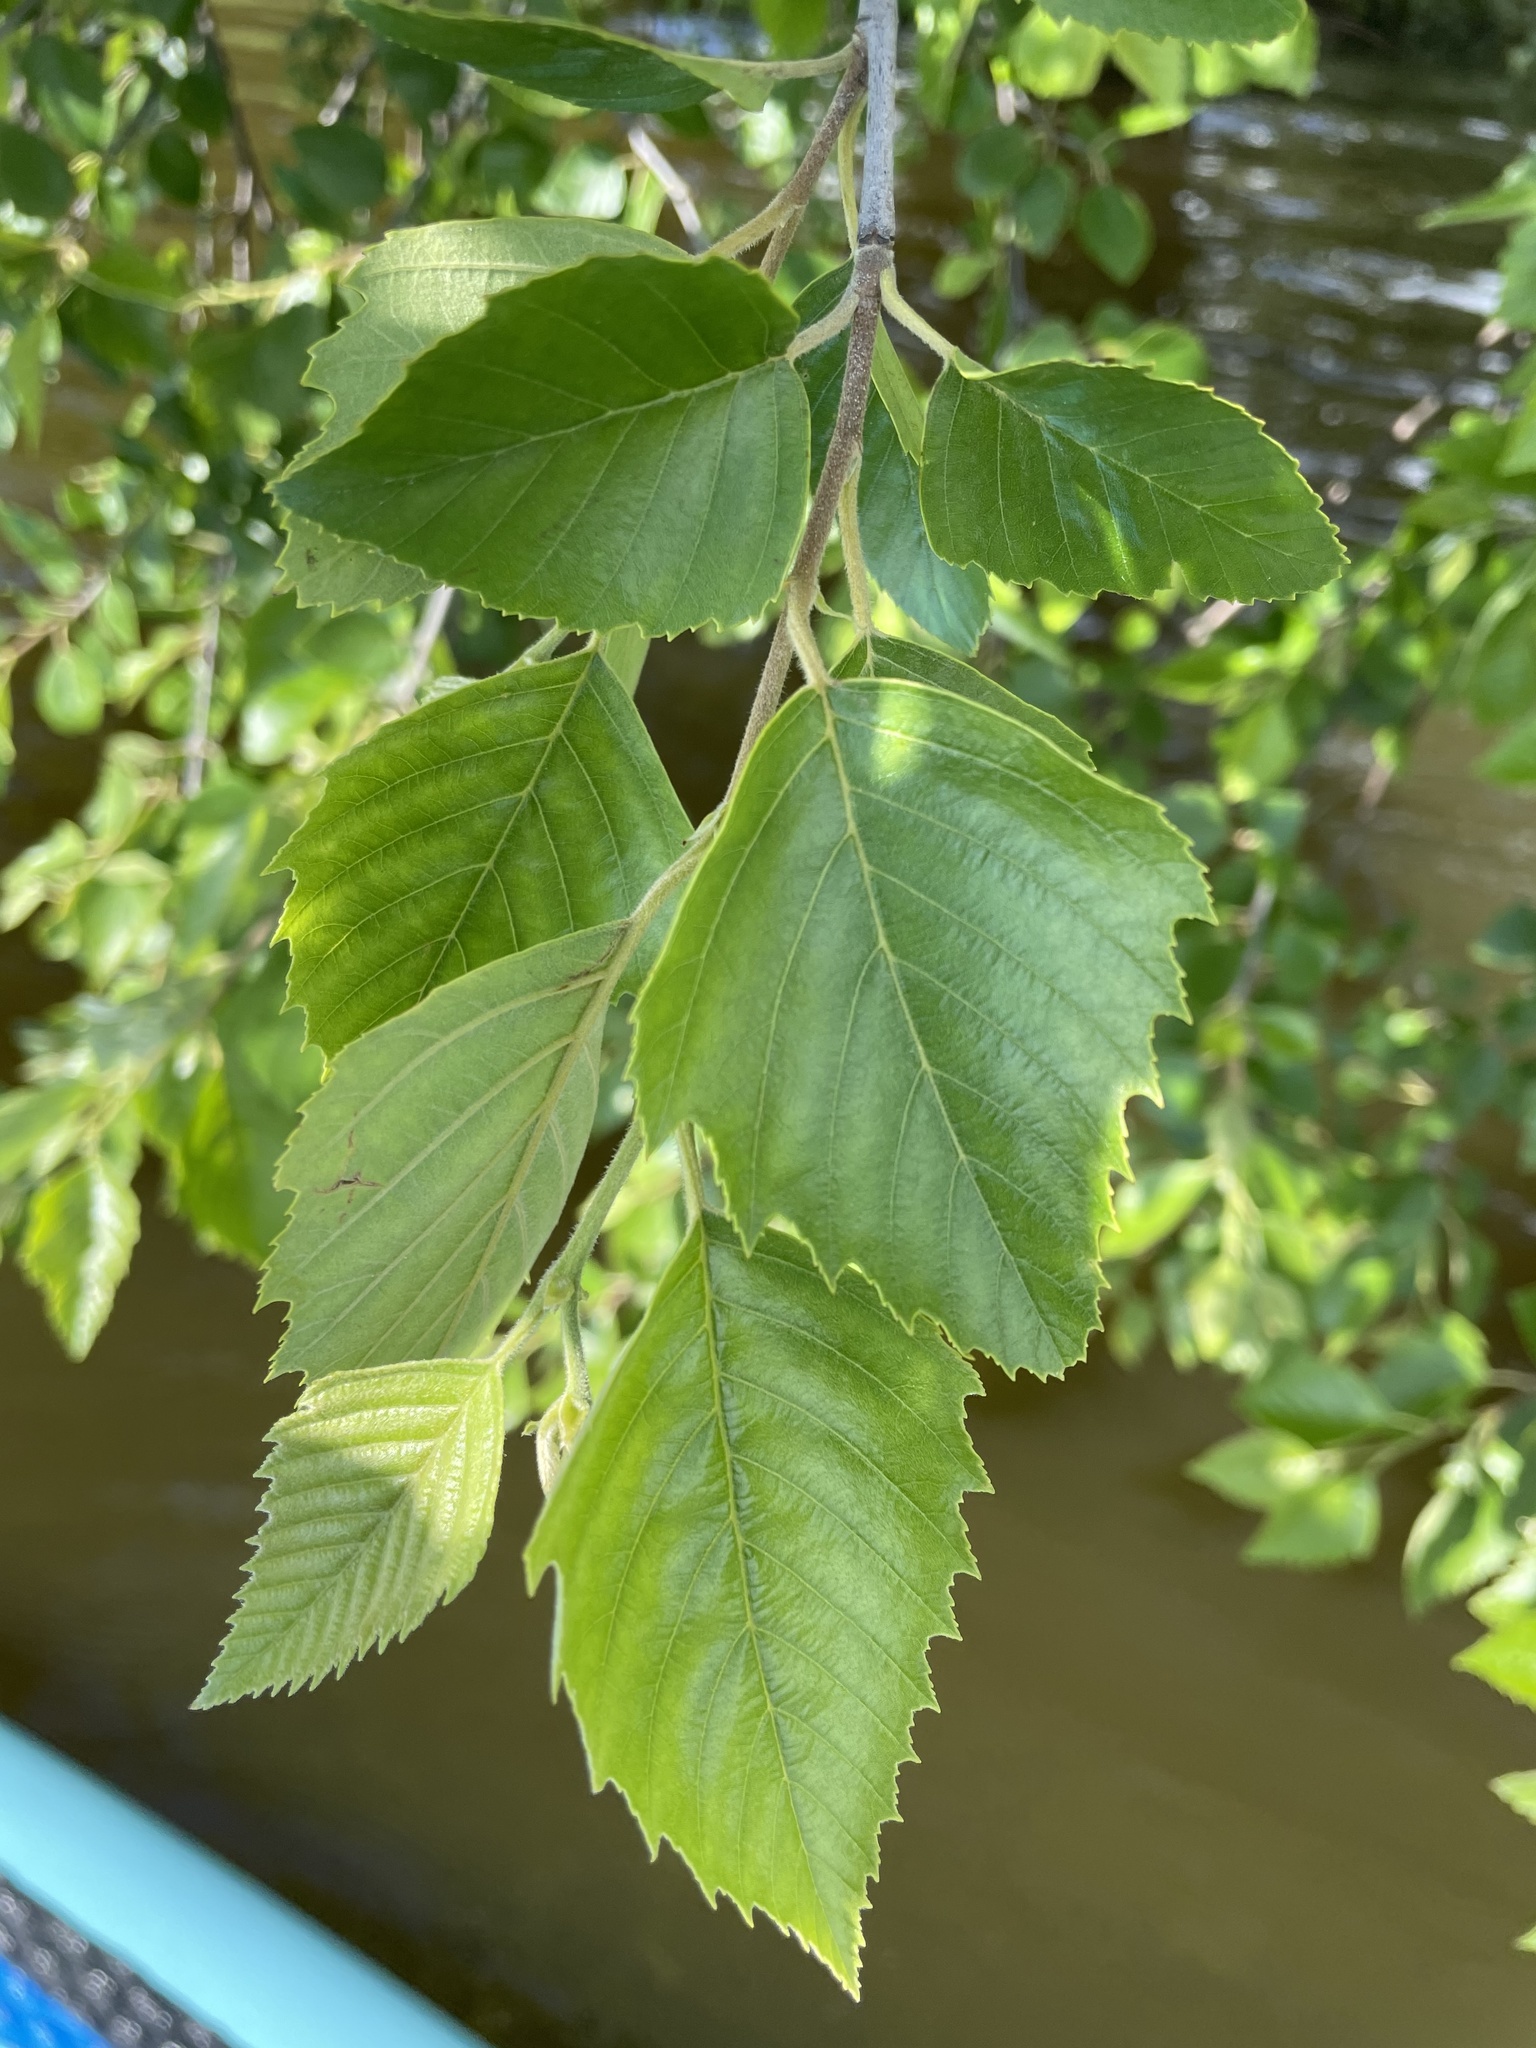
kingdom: Plantae
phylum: Tracheophyta
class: Magnoliopsida
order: Fagales
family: Betulaceae
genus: Betula
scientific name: Betula nigra
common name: Black birch
